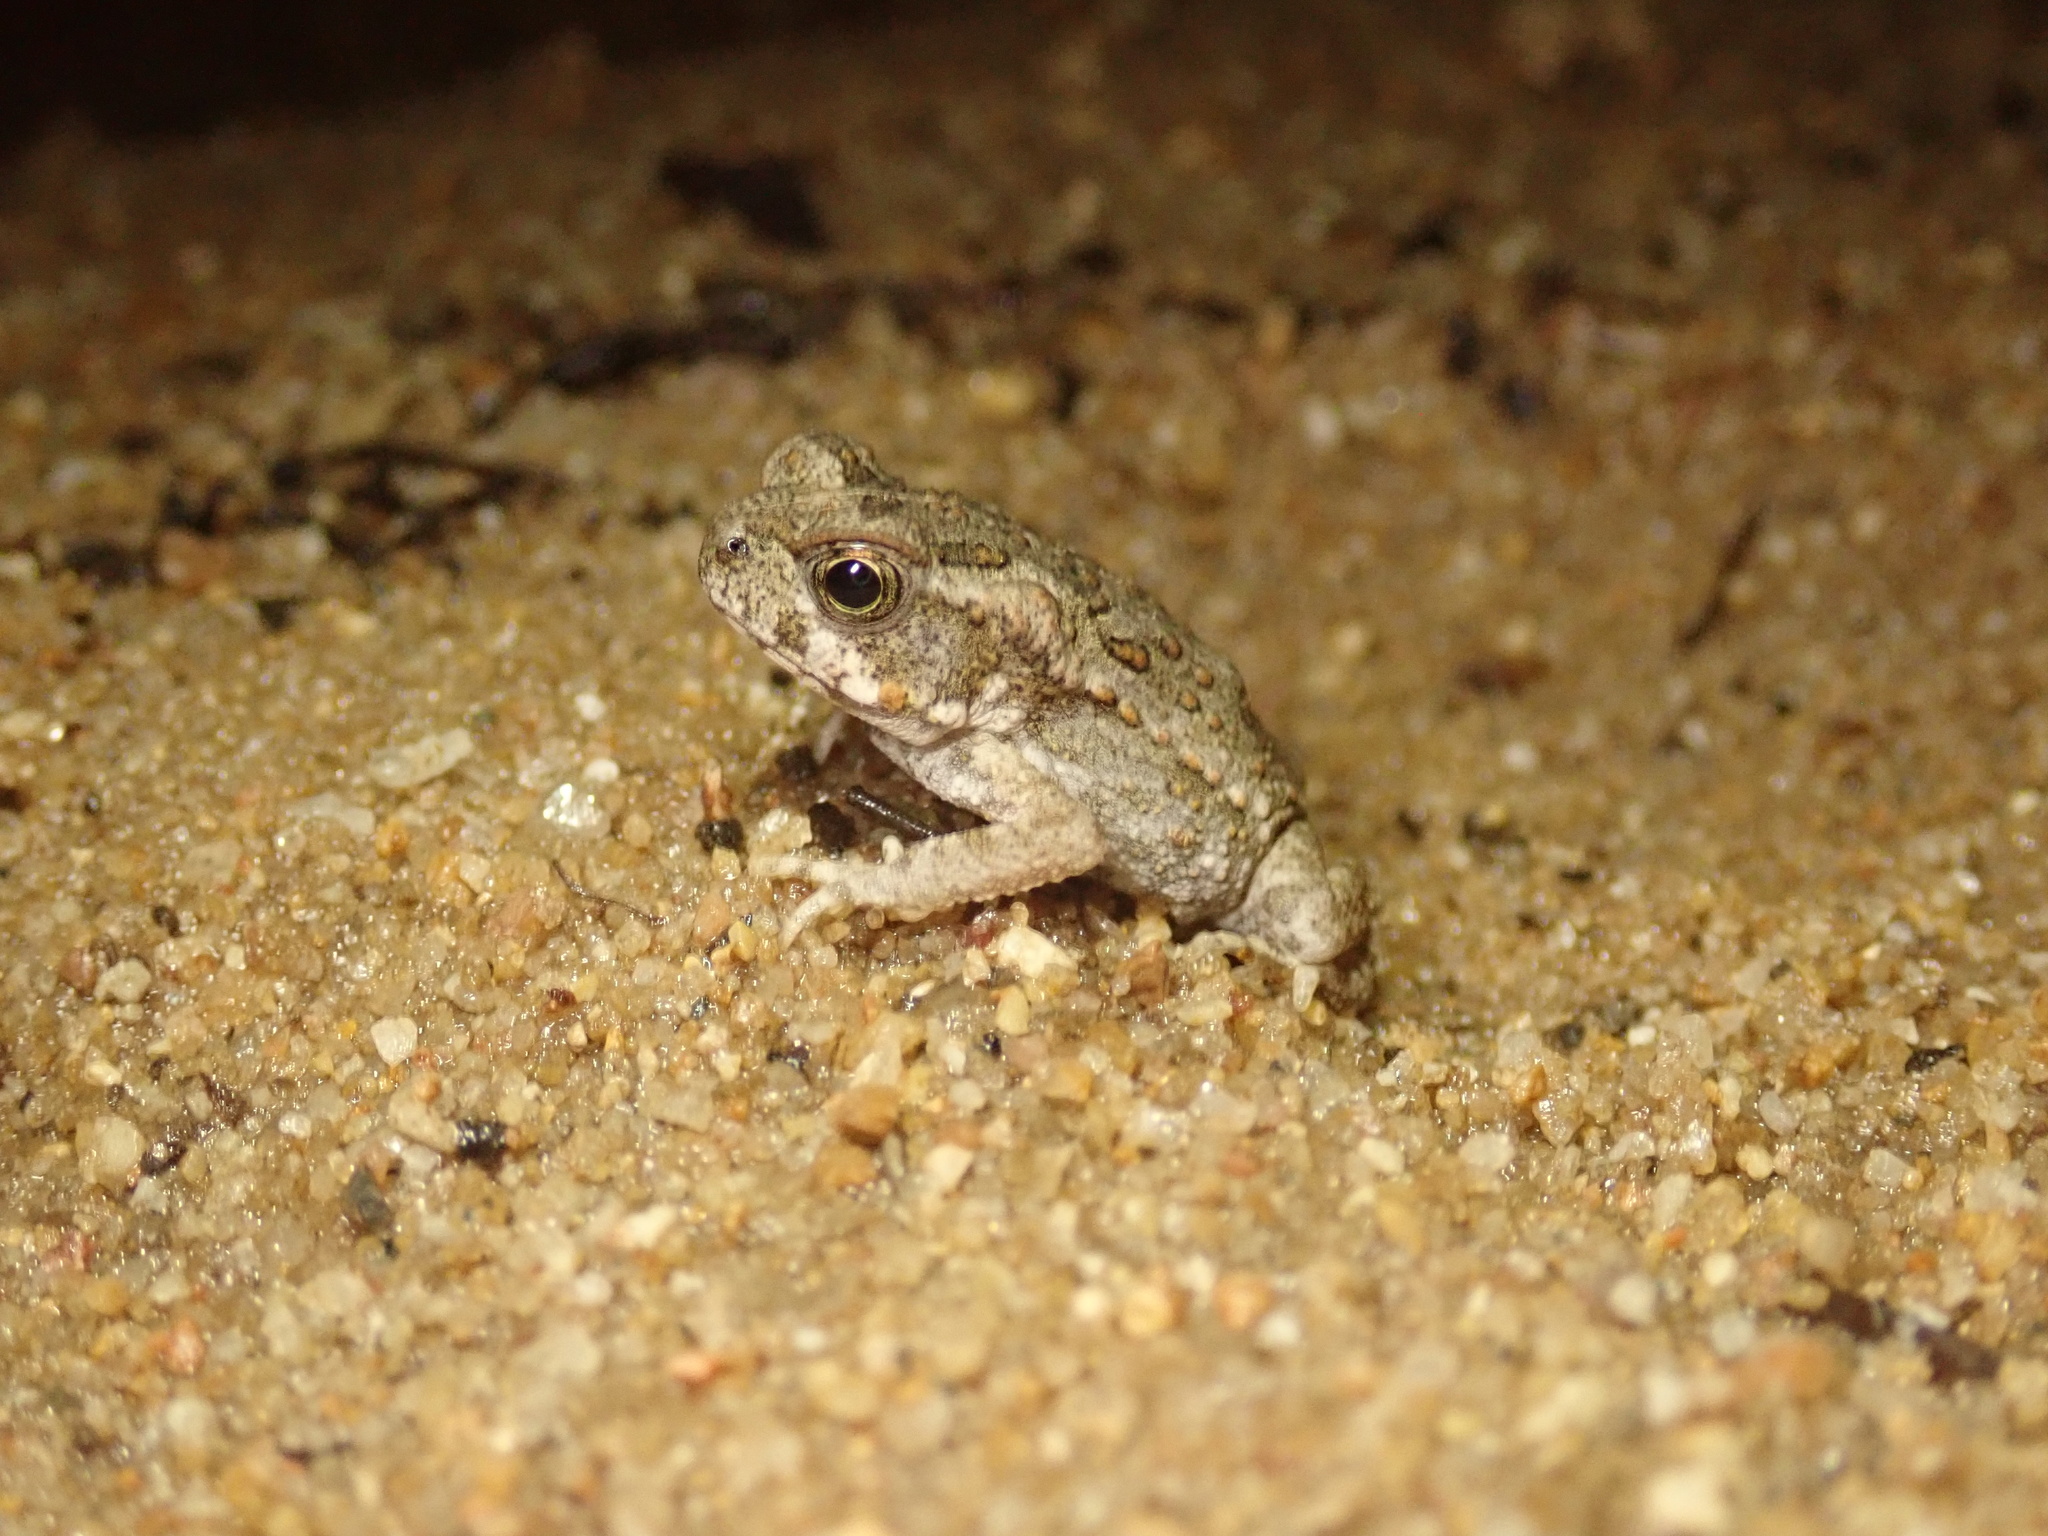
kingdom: Animalia
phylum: Chordata
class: Amphibia
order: Anura
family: Bufonidae
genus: Rhinella
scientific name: Rhinella marina
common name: Cane toad
